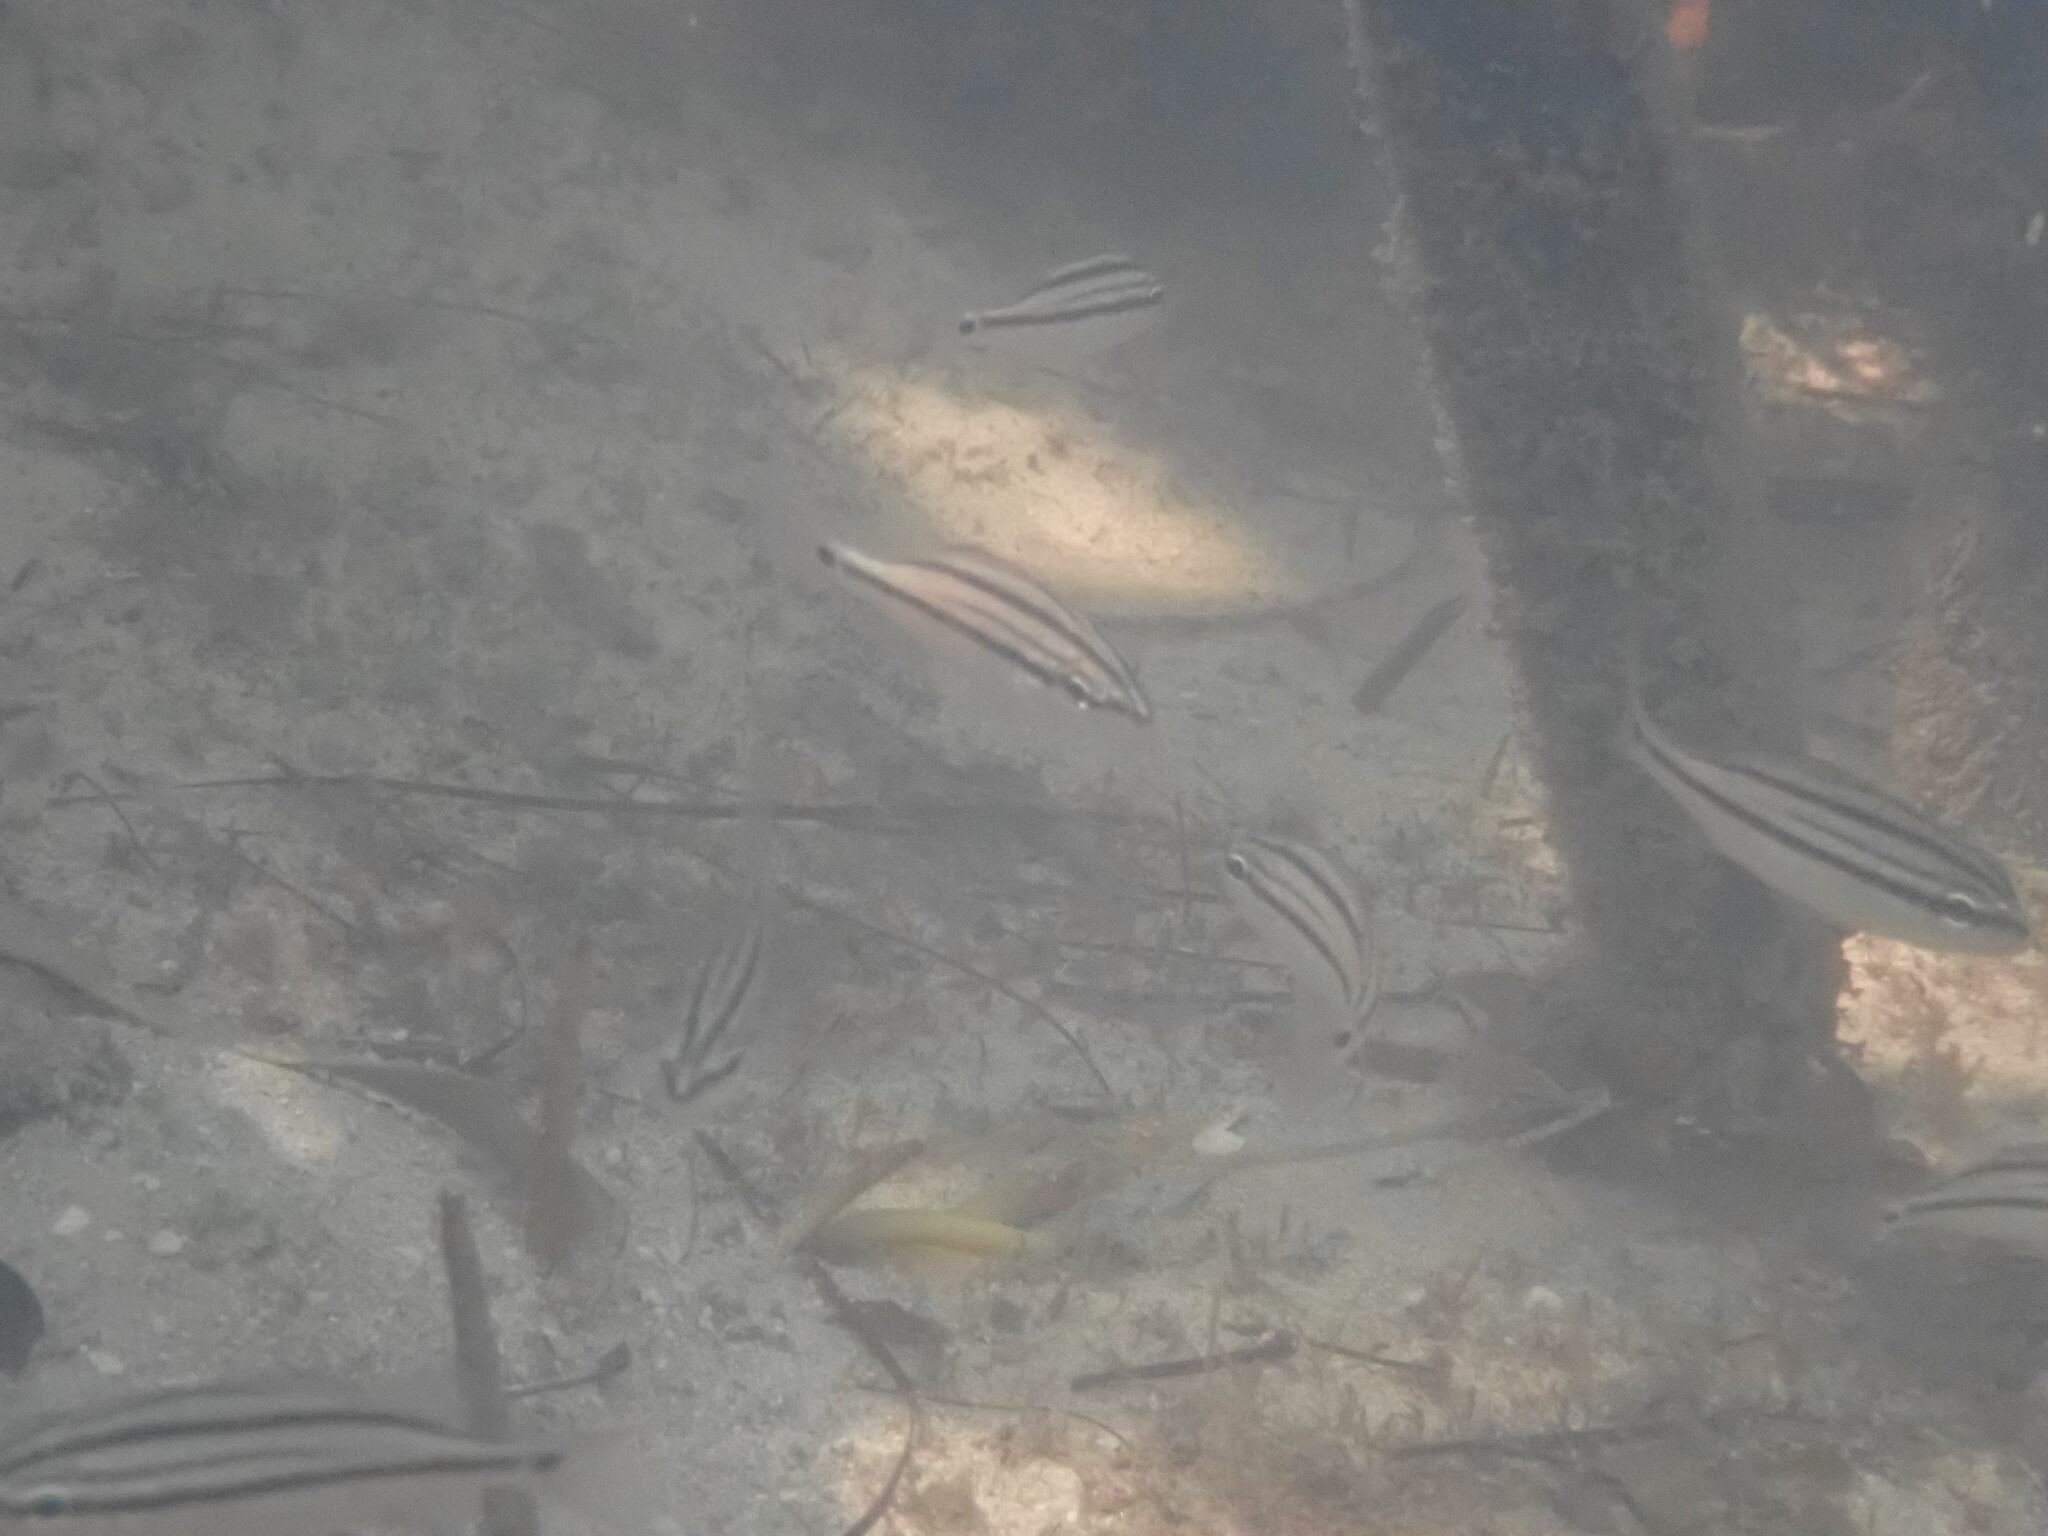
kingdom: Animalia
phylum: Chordata
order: Perciformes
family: Haemulidae
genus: Haemulon
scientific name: Haemulon parra
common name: Sailor's choice
